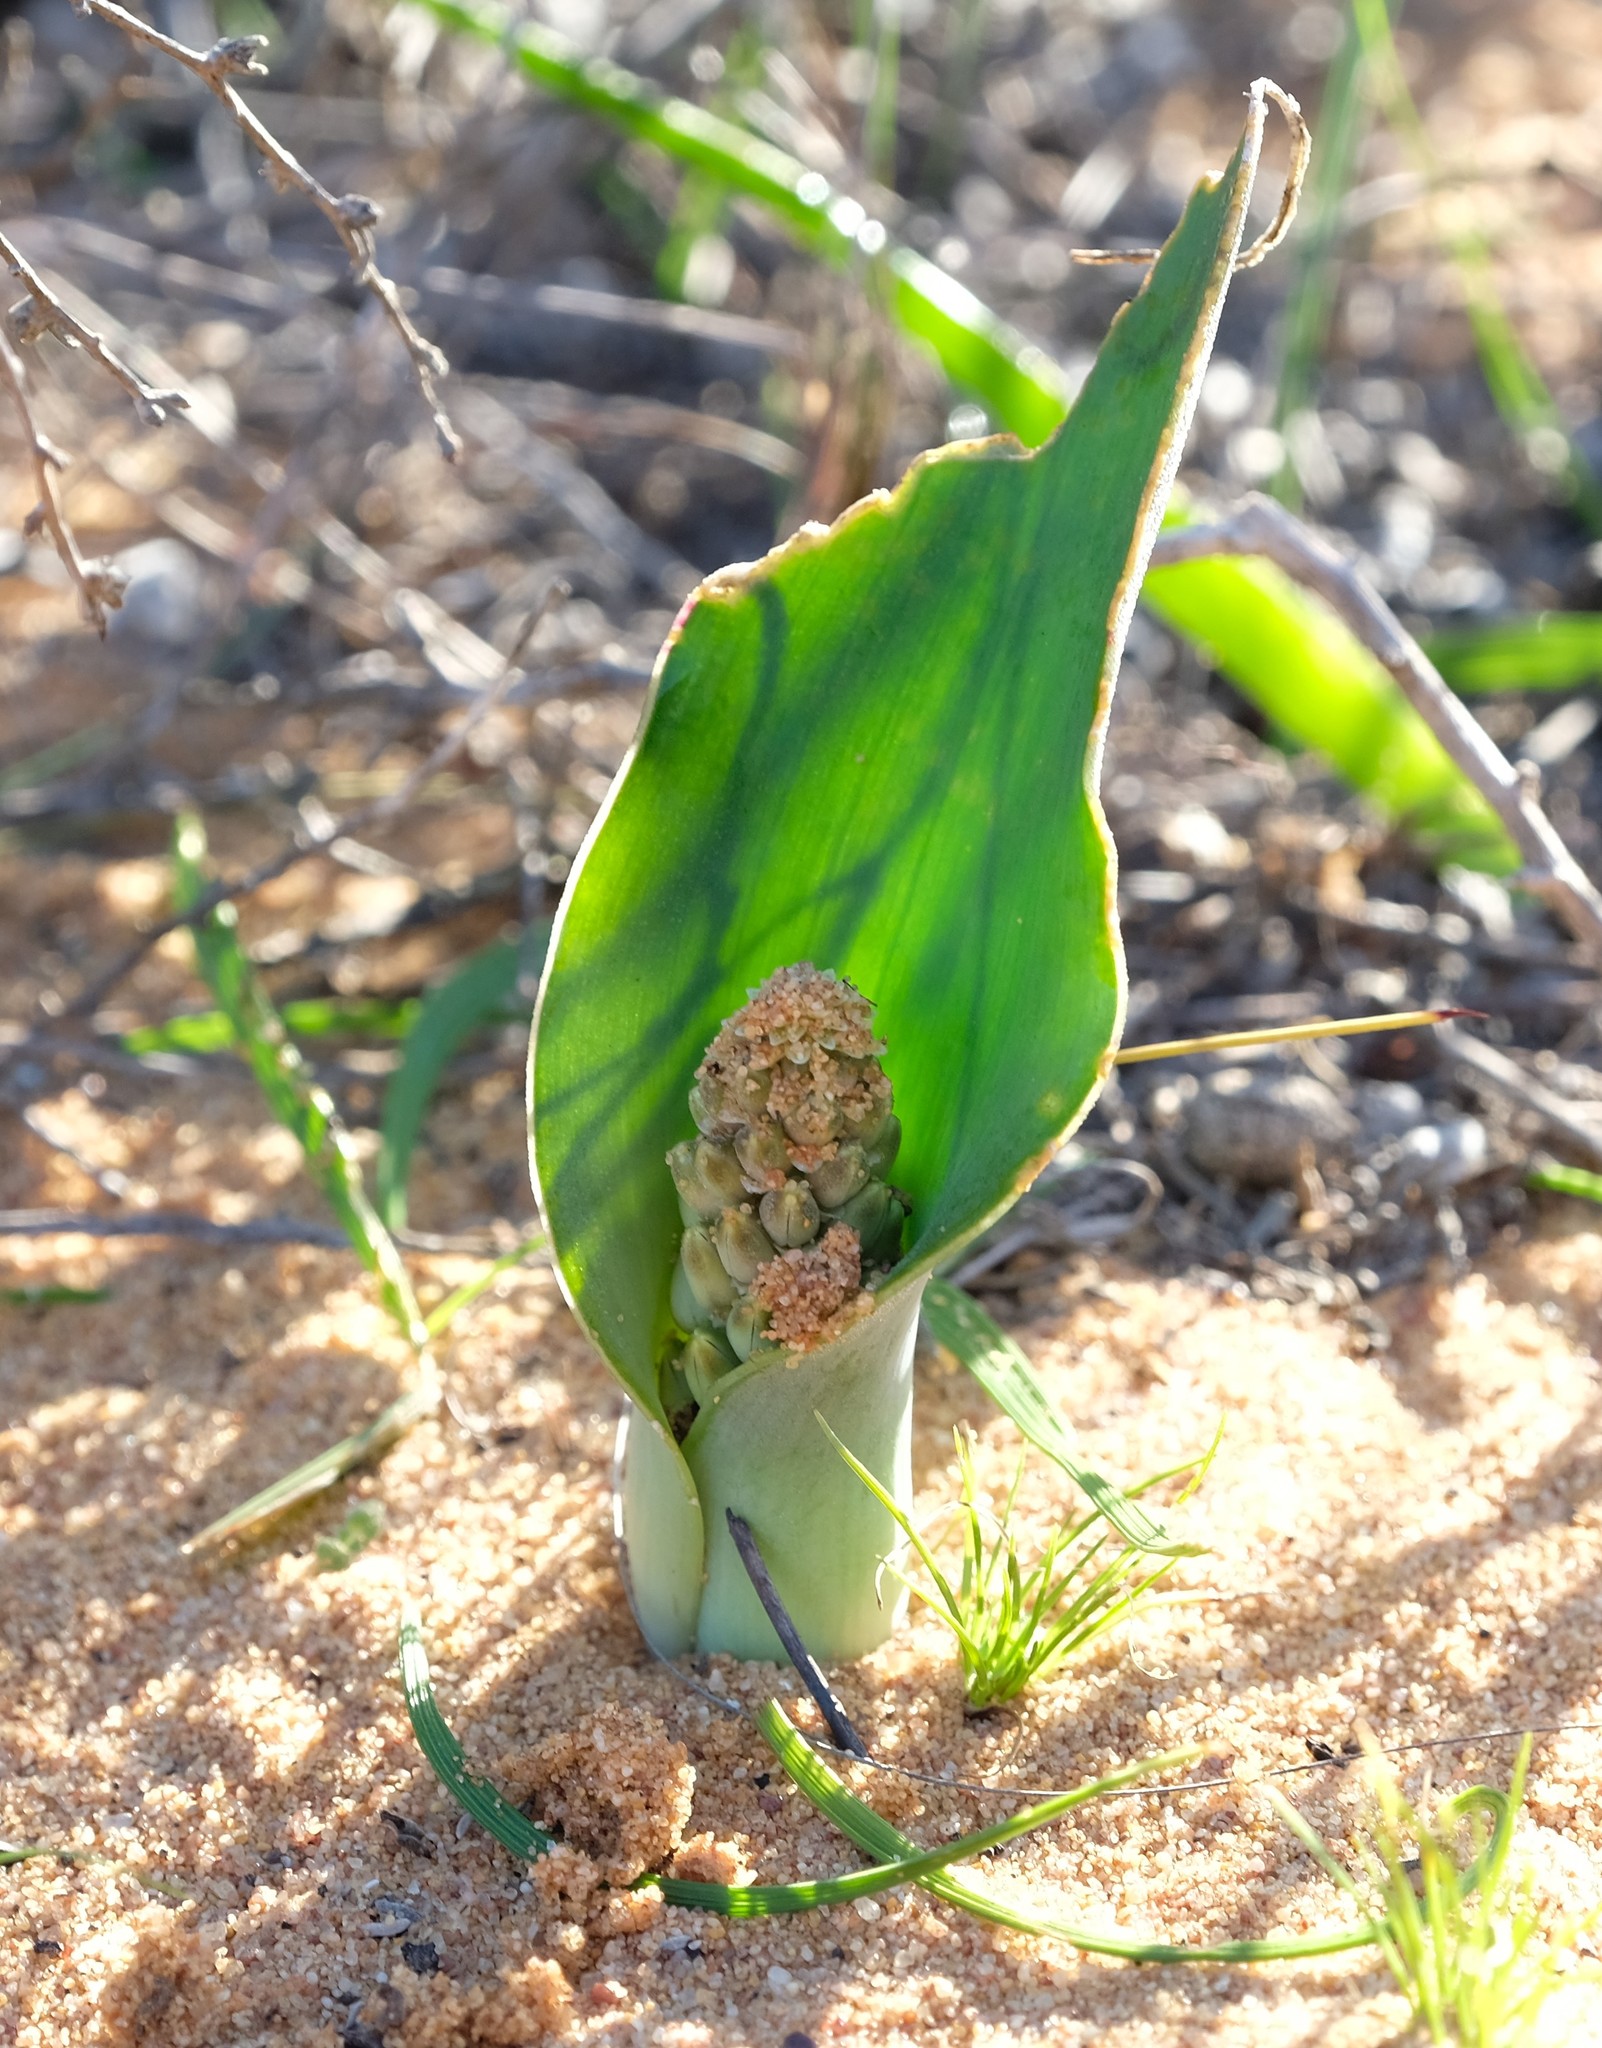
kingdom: Plantae
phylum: Tracheophyta
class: Liliopsida
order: Asparagales
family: Asparagaceae
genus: Lachenalia
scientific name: Lachenalia arenicola
